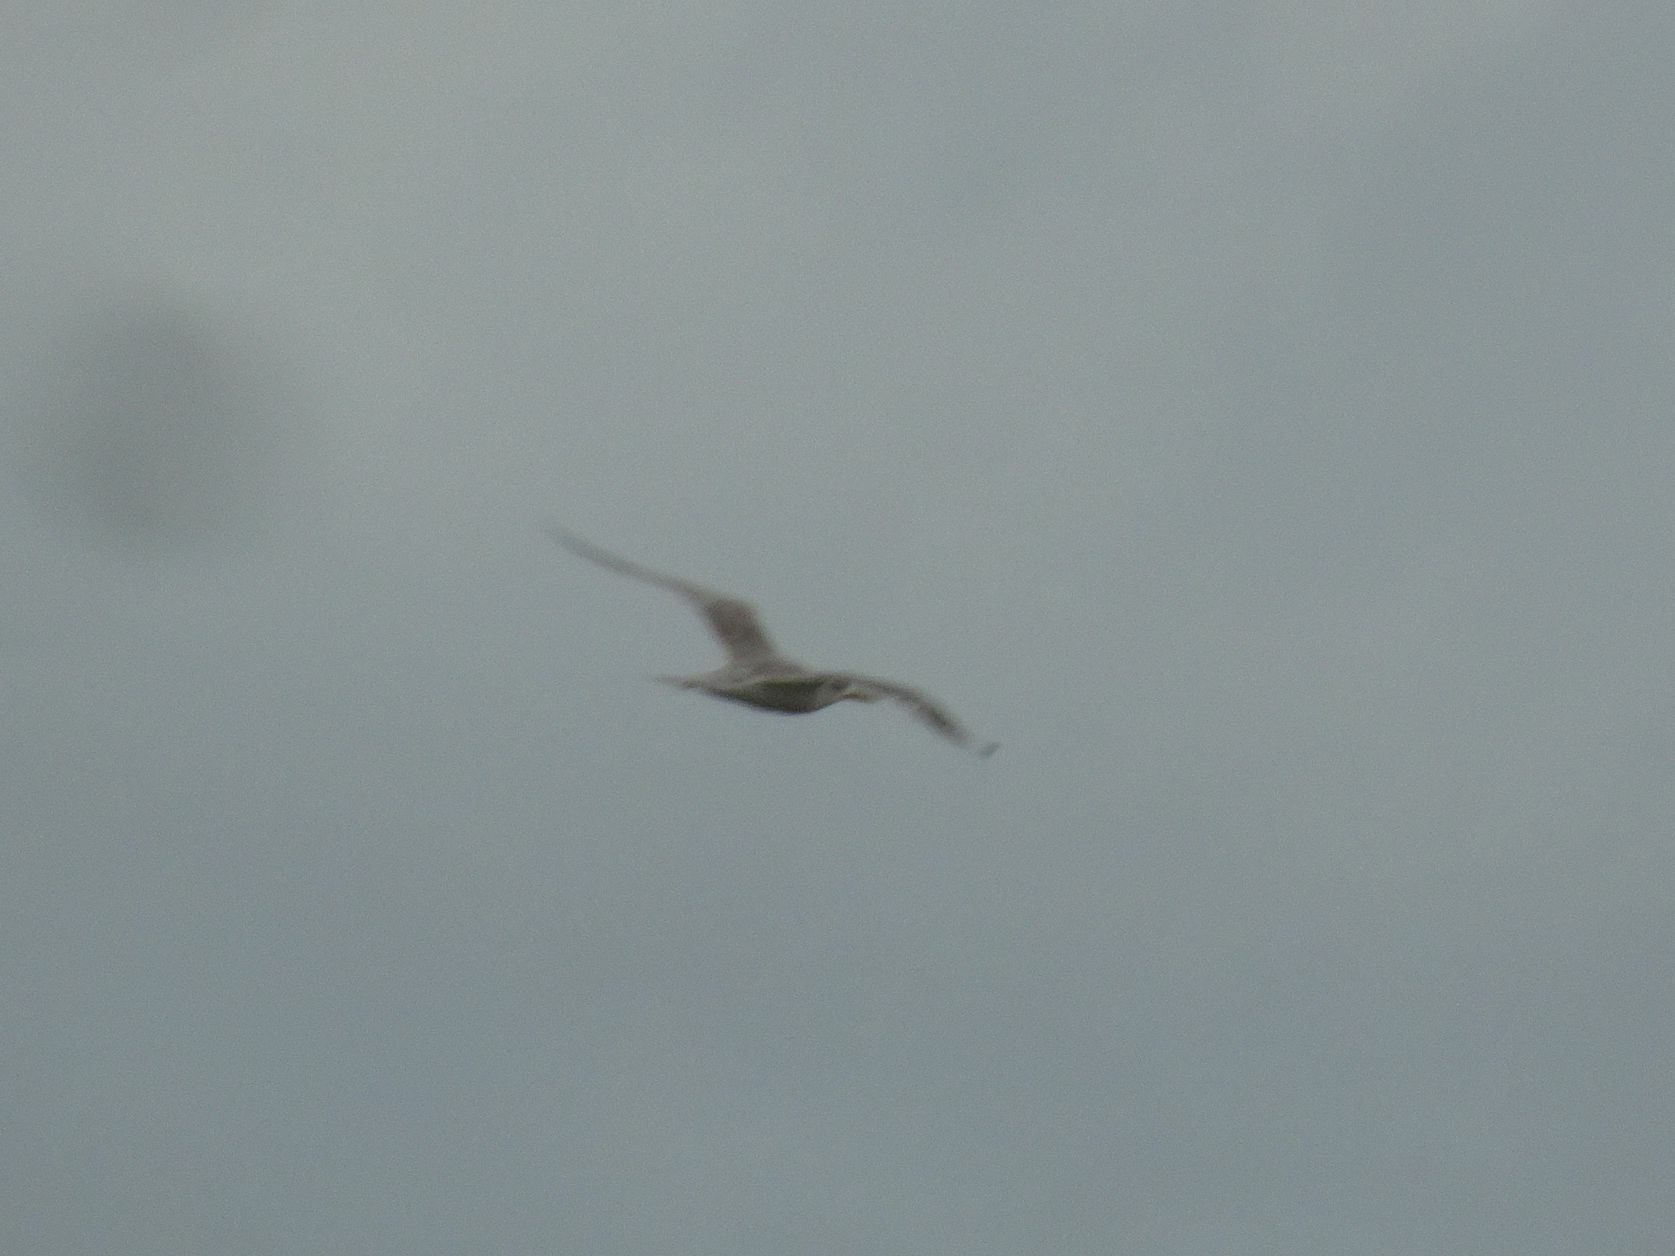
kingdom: Animalia
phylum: Chordata
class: Aves
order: Charadriiformes
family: Laridae
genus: Thalasseus
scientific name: Thalasseus bergii
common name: Greater crested tern
